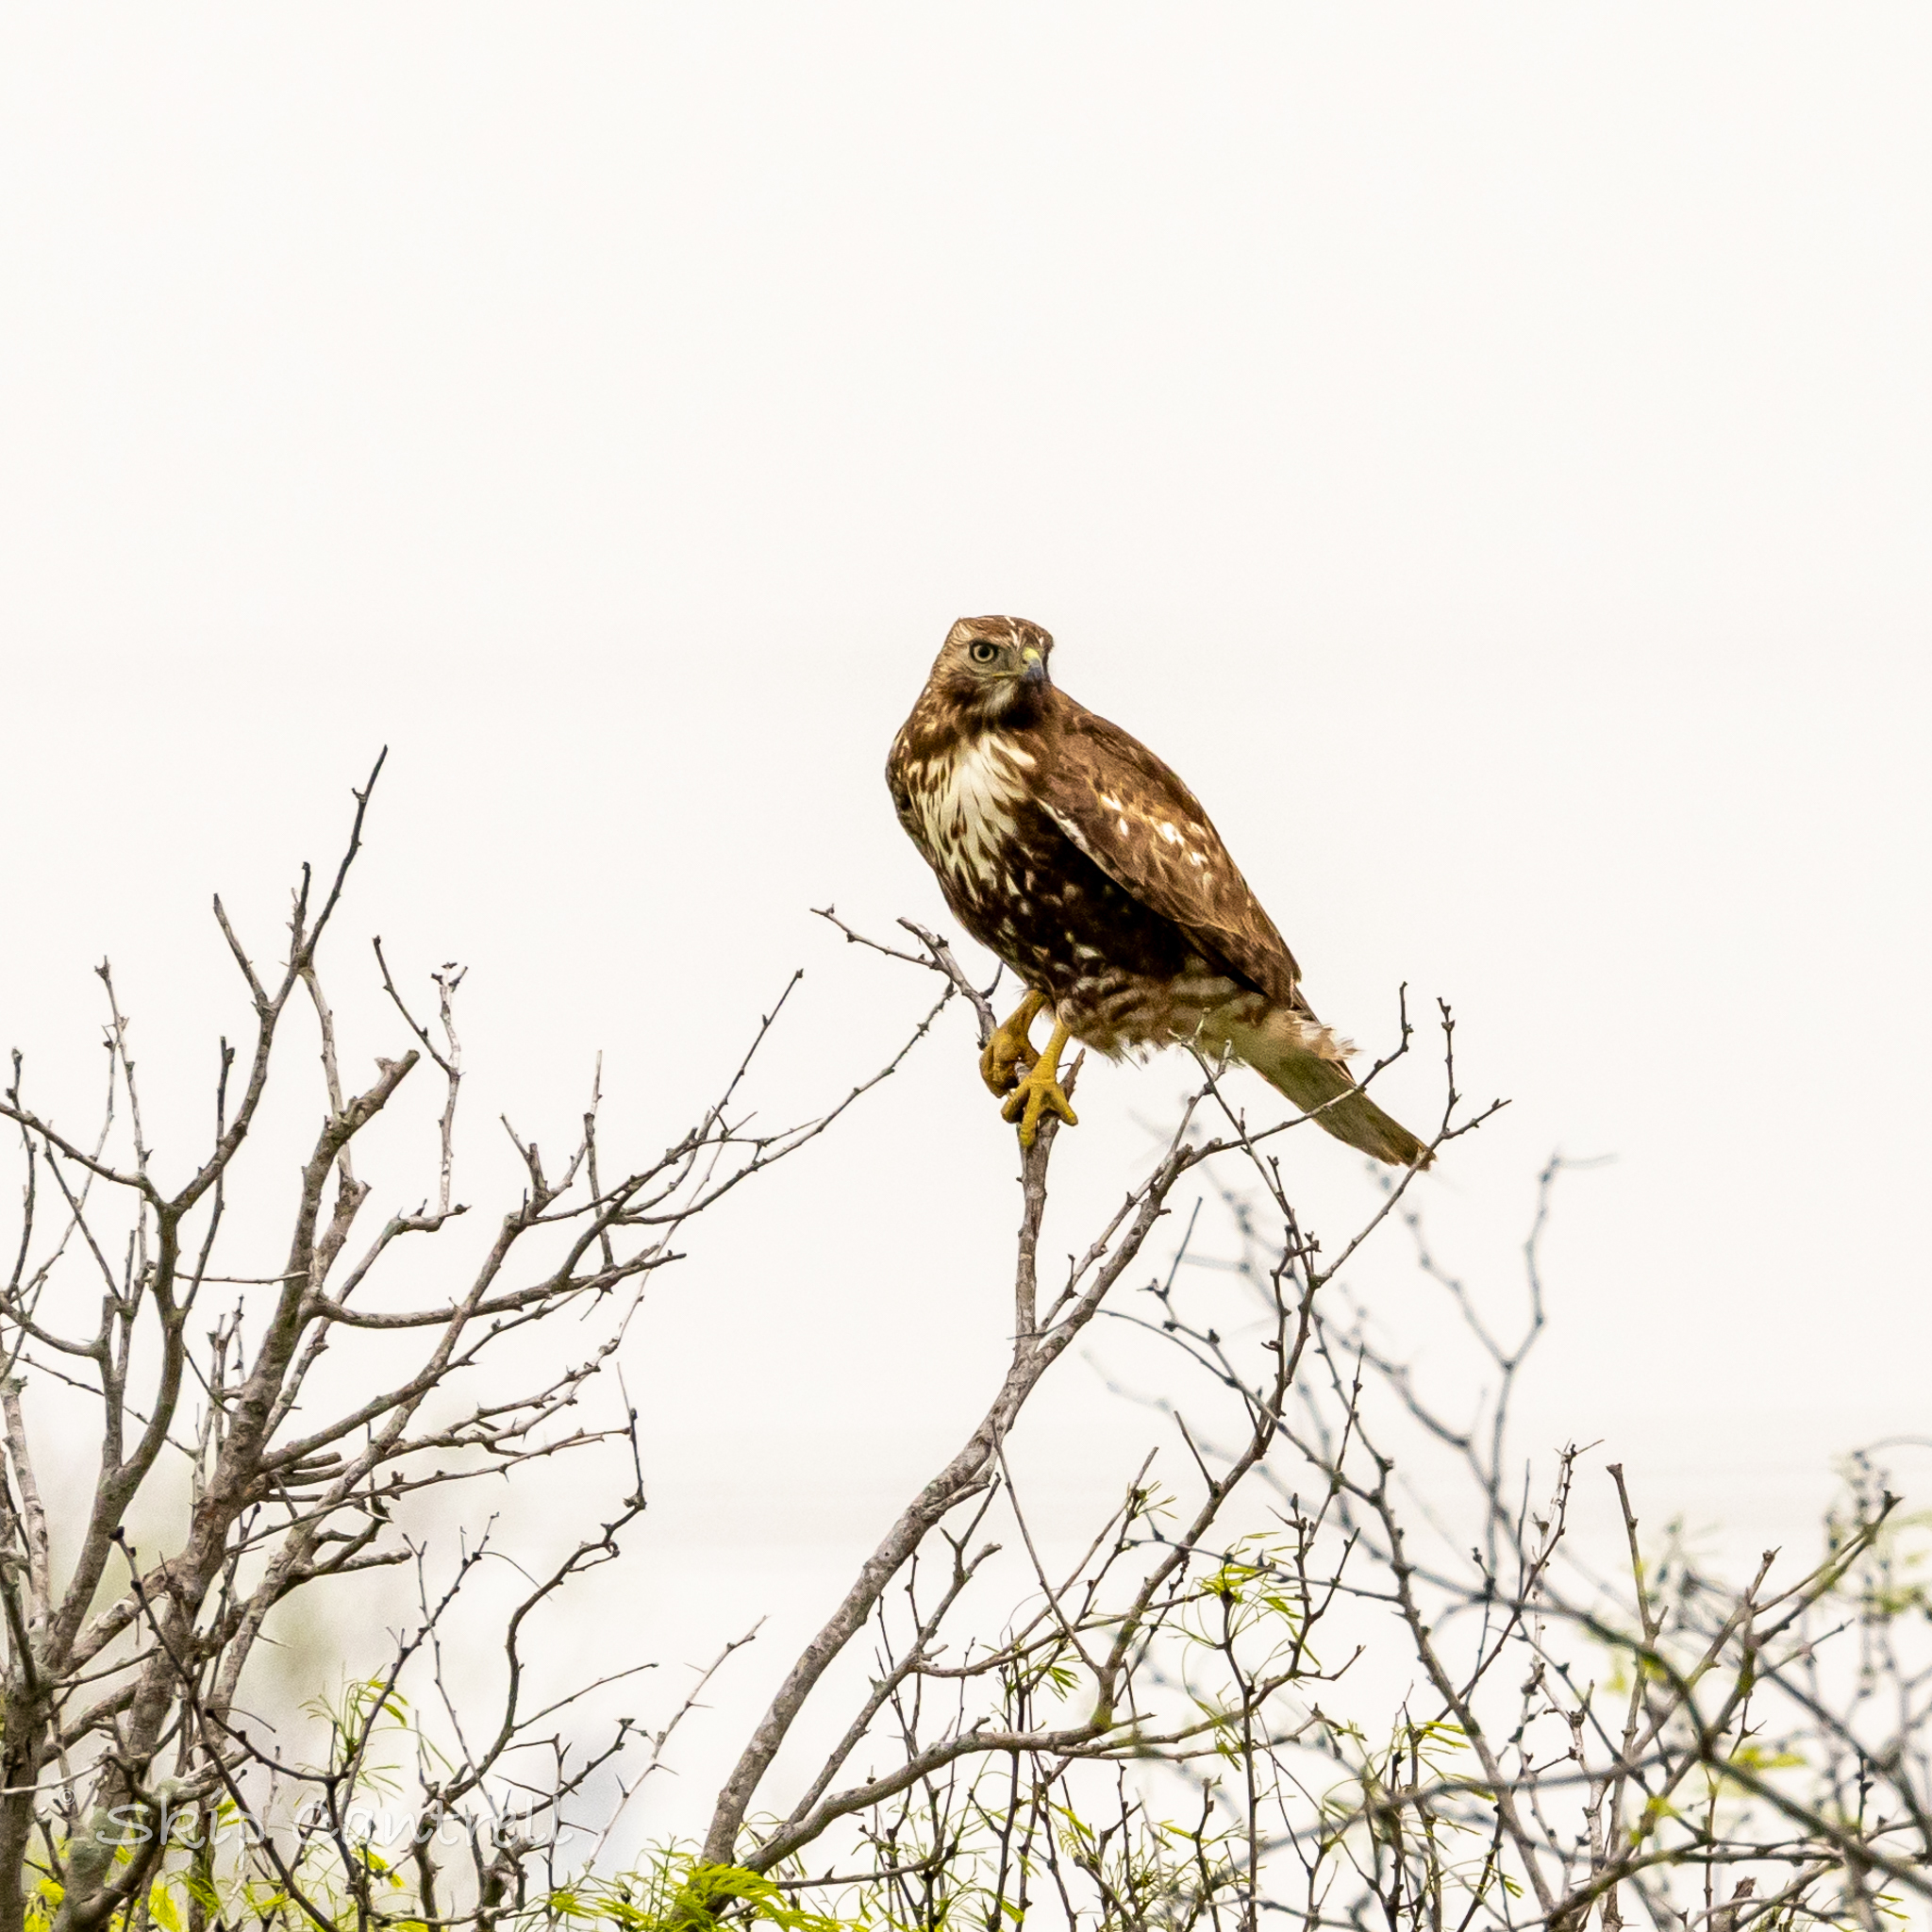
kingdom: Animalia
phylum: Chordata
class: Aves
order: Accipitriformes
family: Accipitridae
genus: Buteo
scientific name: Buteo jamaicensis
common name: Red-tailed hawk
